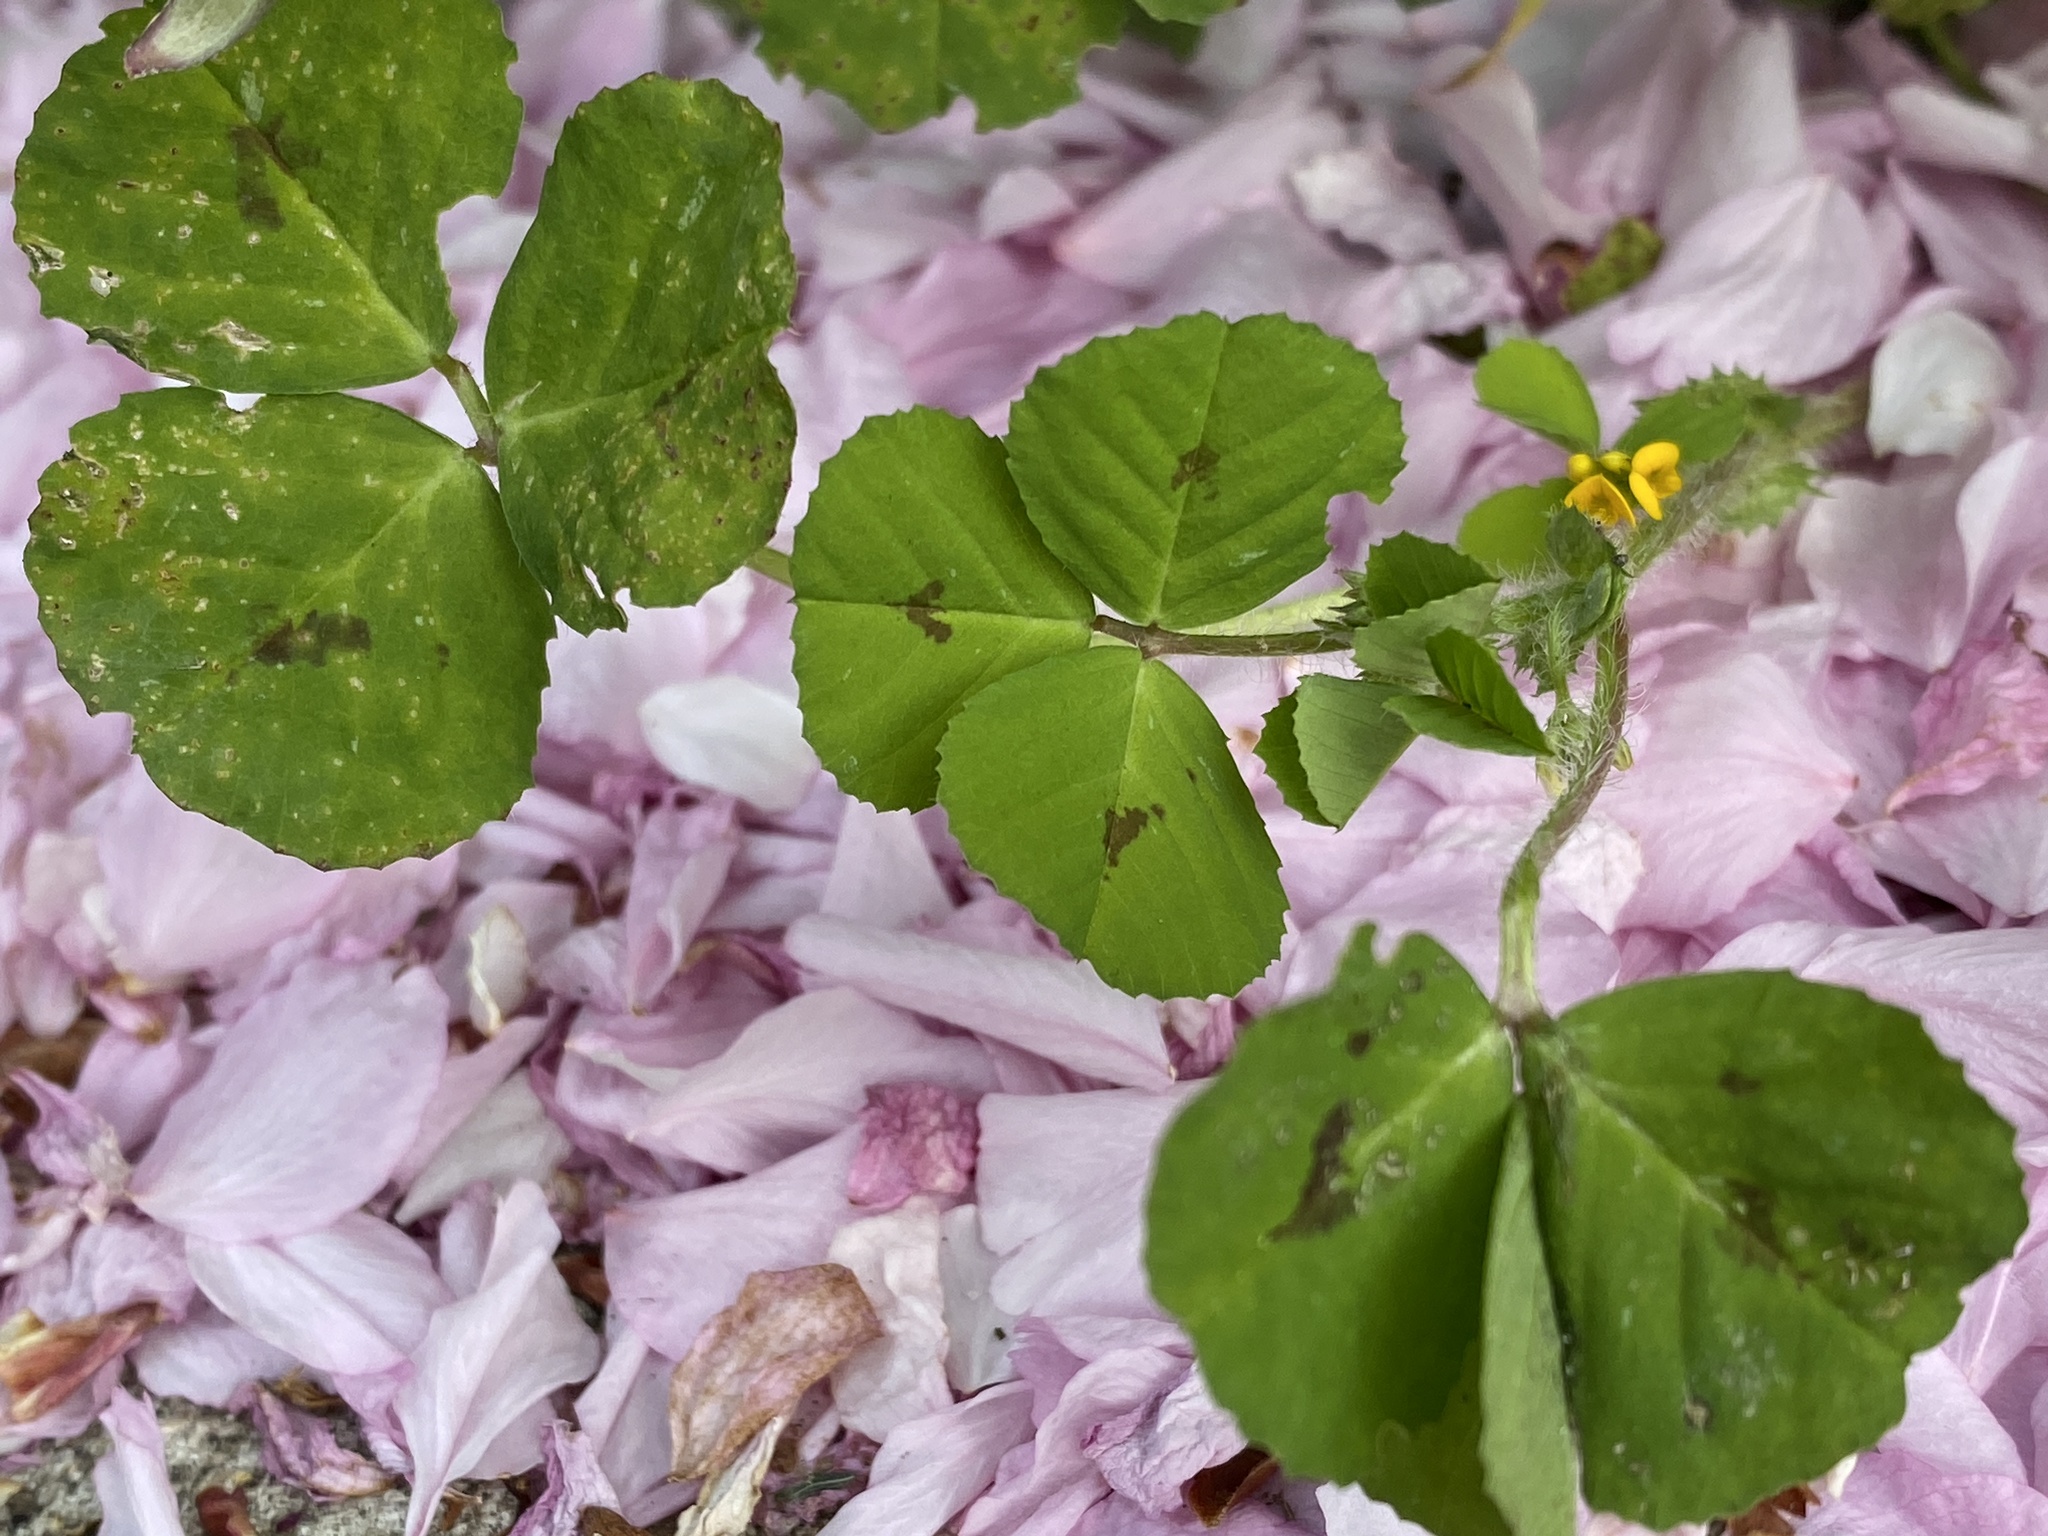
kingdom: Plantae
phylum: Tracheophyta
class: Magnoliopsida
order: Fabales
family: Fabaceae
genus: Medicago
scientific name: Medicago arabica
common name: Spotted medick
